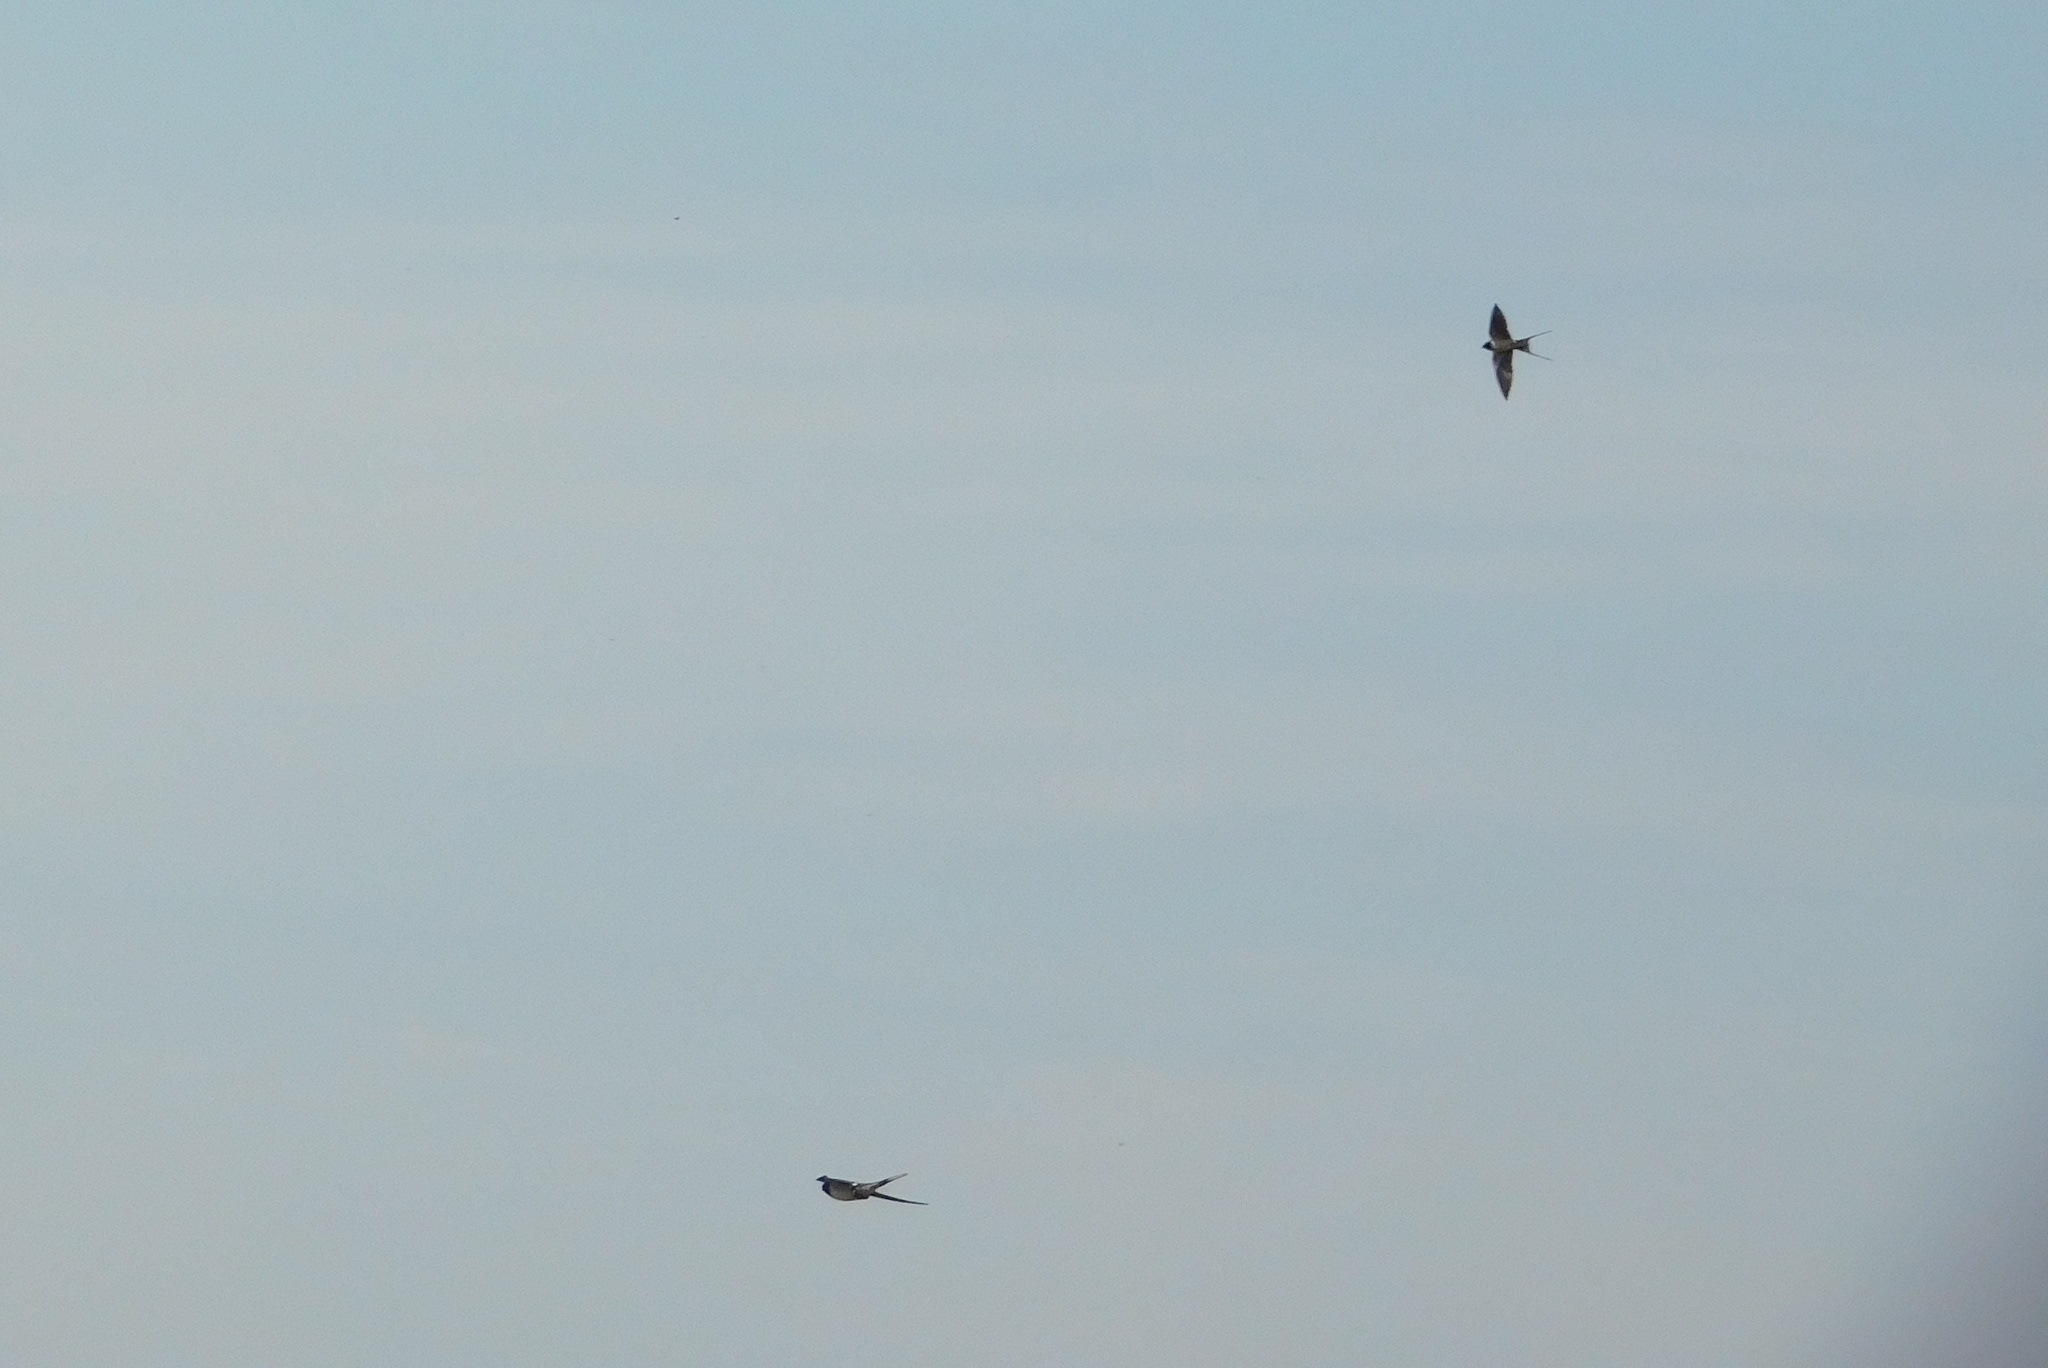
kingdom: Animalia
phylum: Chordata
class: Aves
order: Passeriformes
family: Hirundinidae
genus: Hirundo
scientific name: Hirundo rustica
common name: Barn swallow
